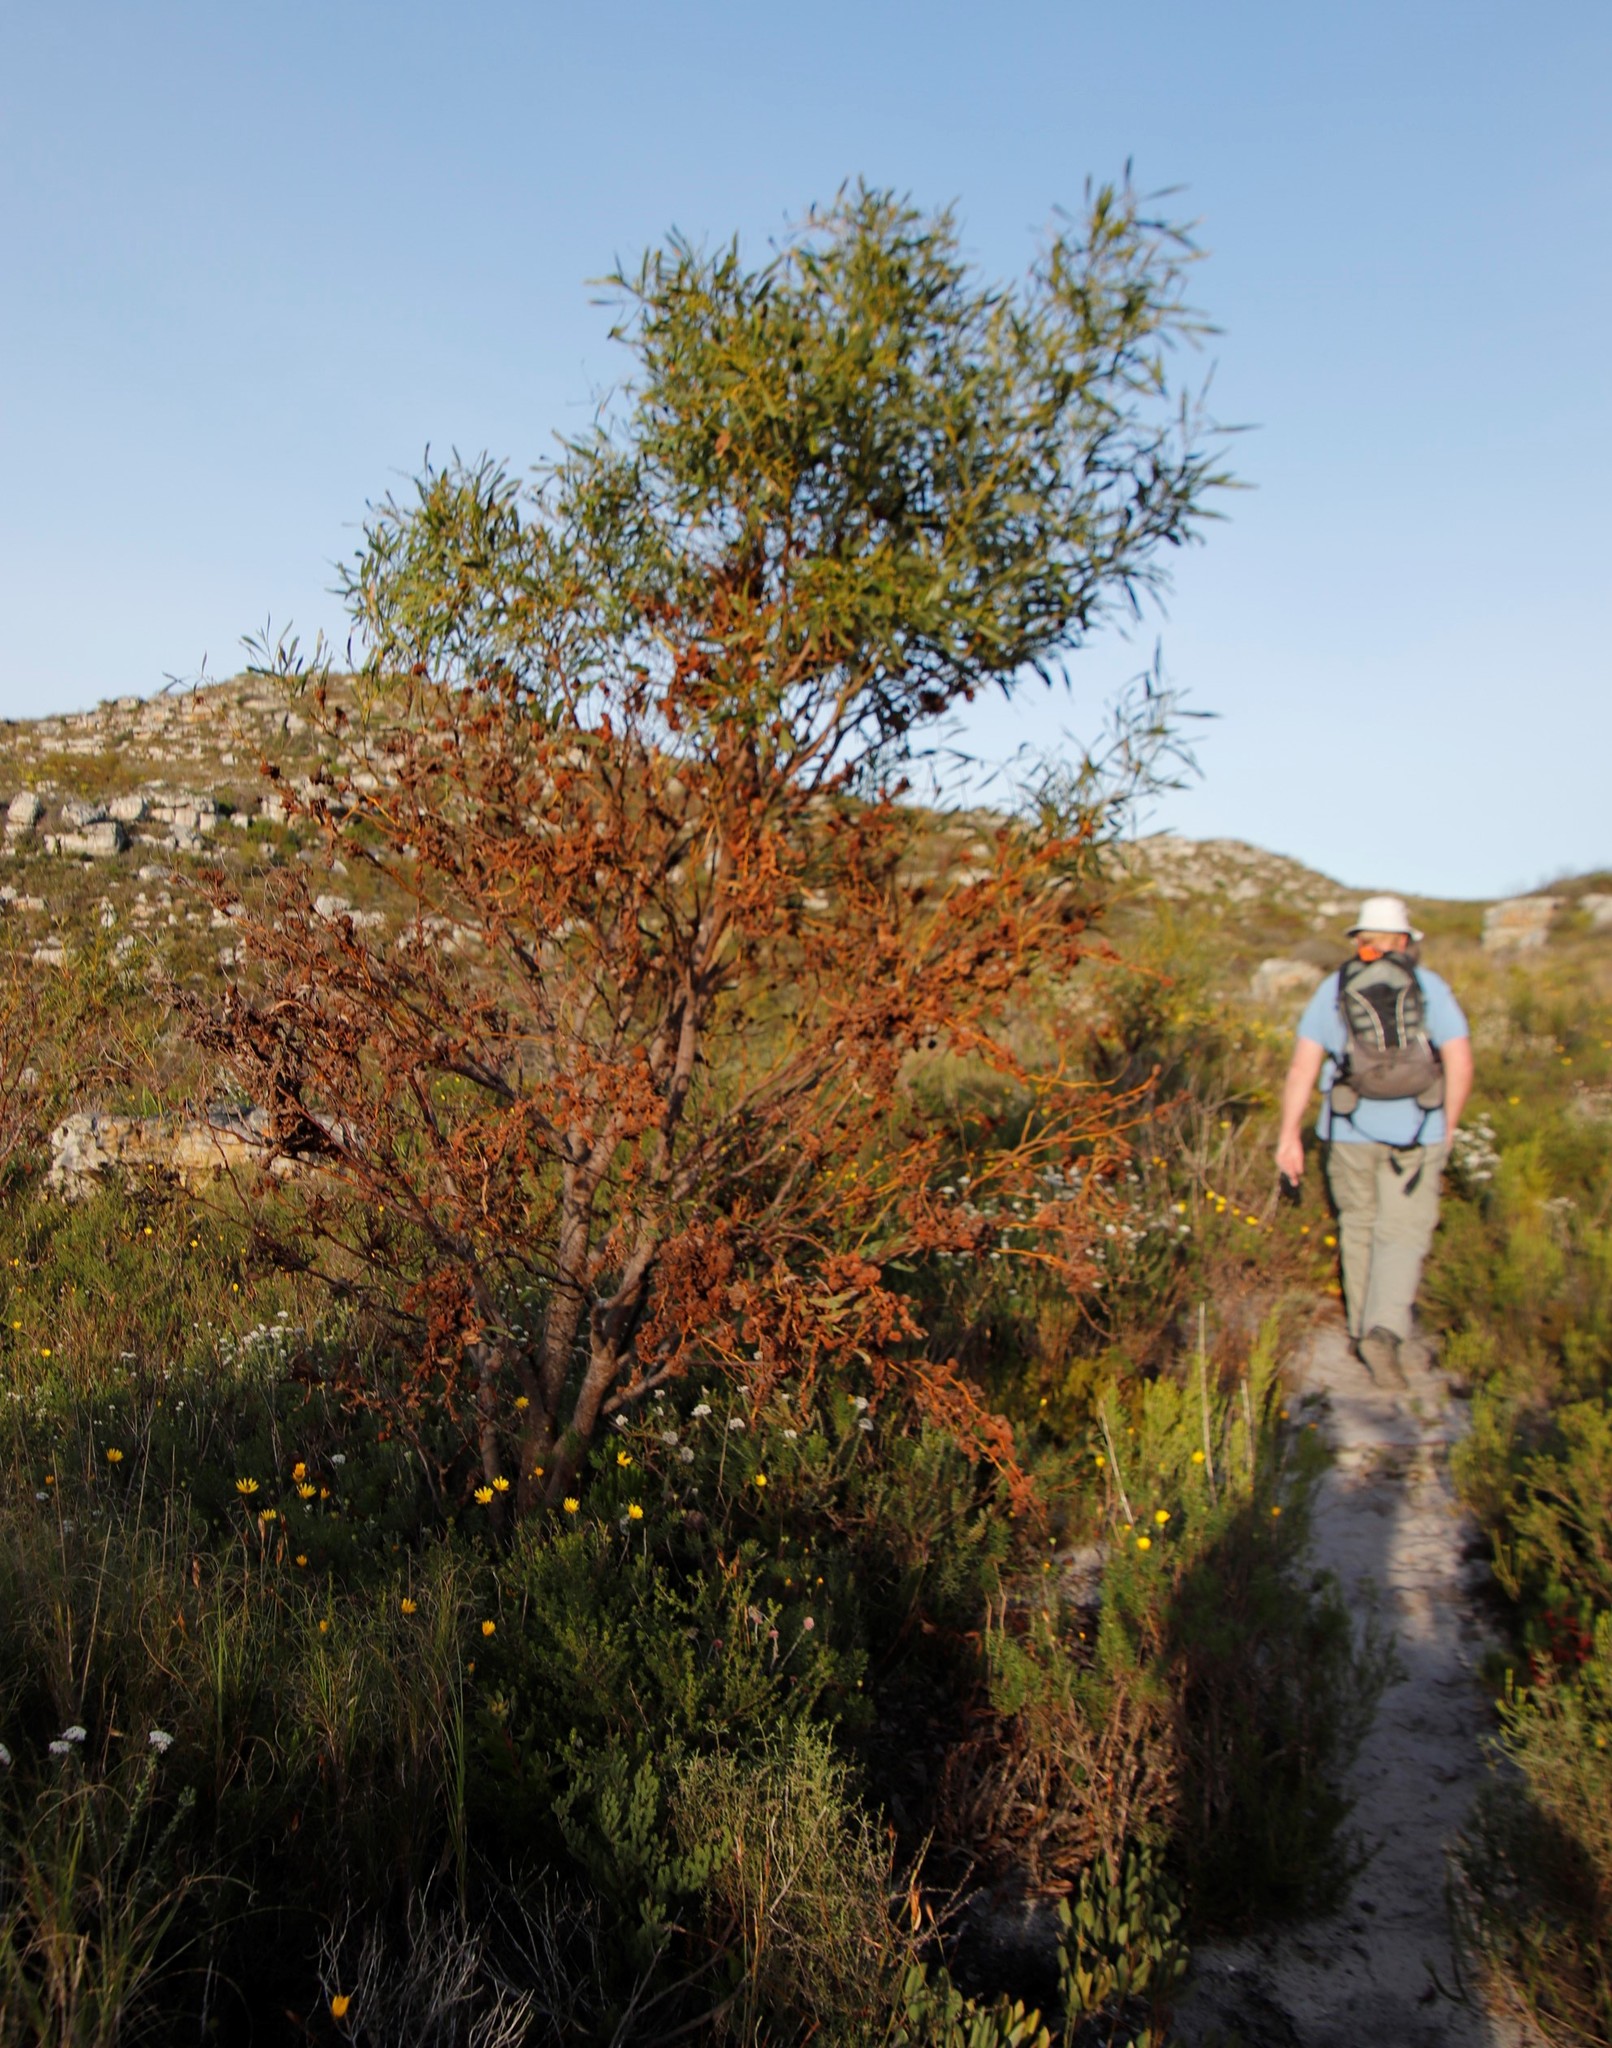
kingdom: Fungi
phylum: Basidiomycota
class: Pucciniomycetes
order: Pucciniales
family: Uromycladiaceae
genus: Uromycladium
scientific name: Uromycladium morrisii
